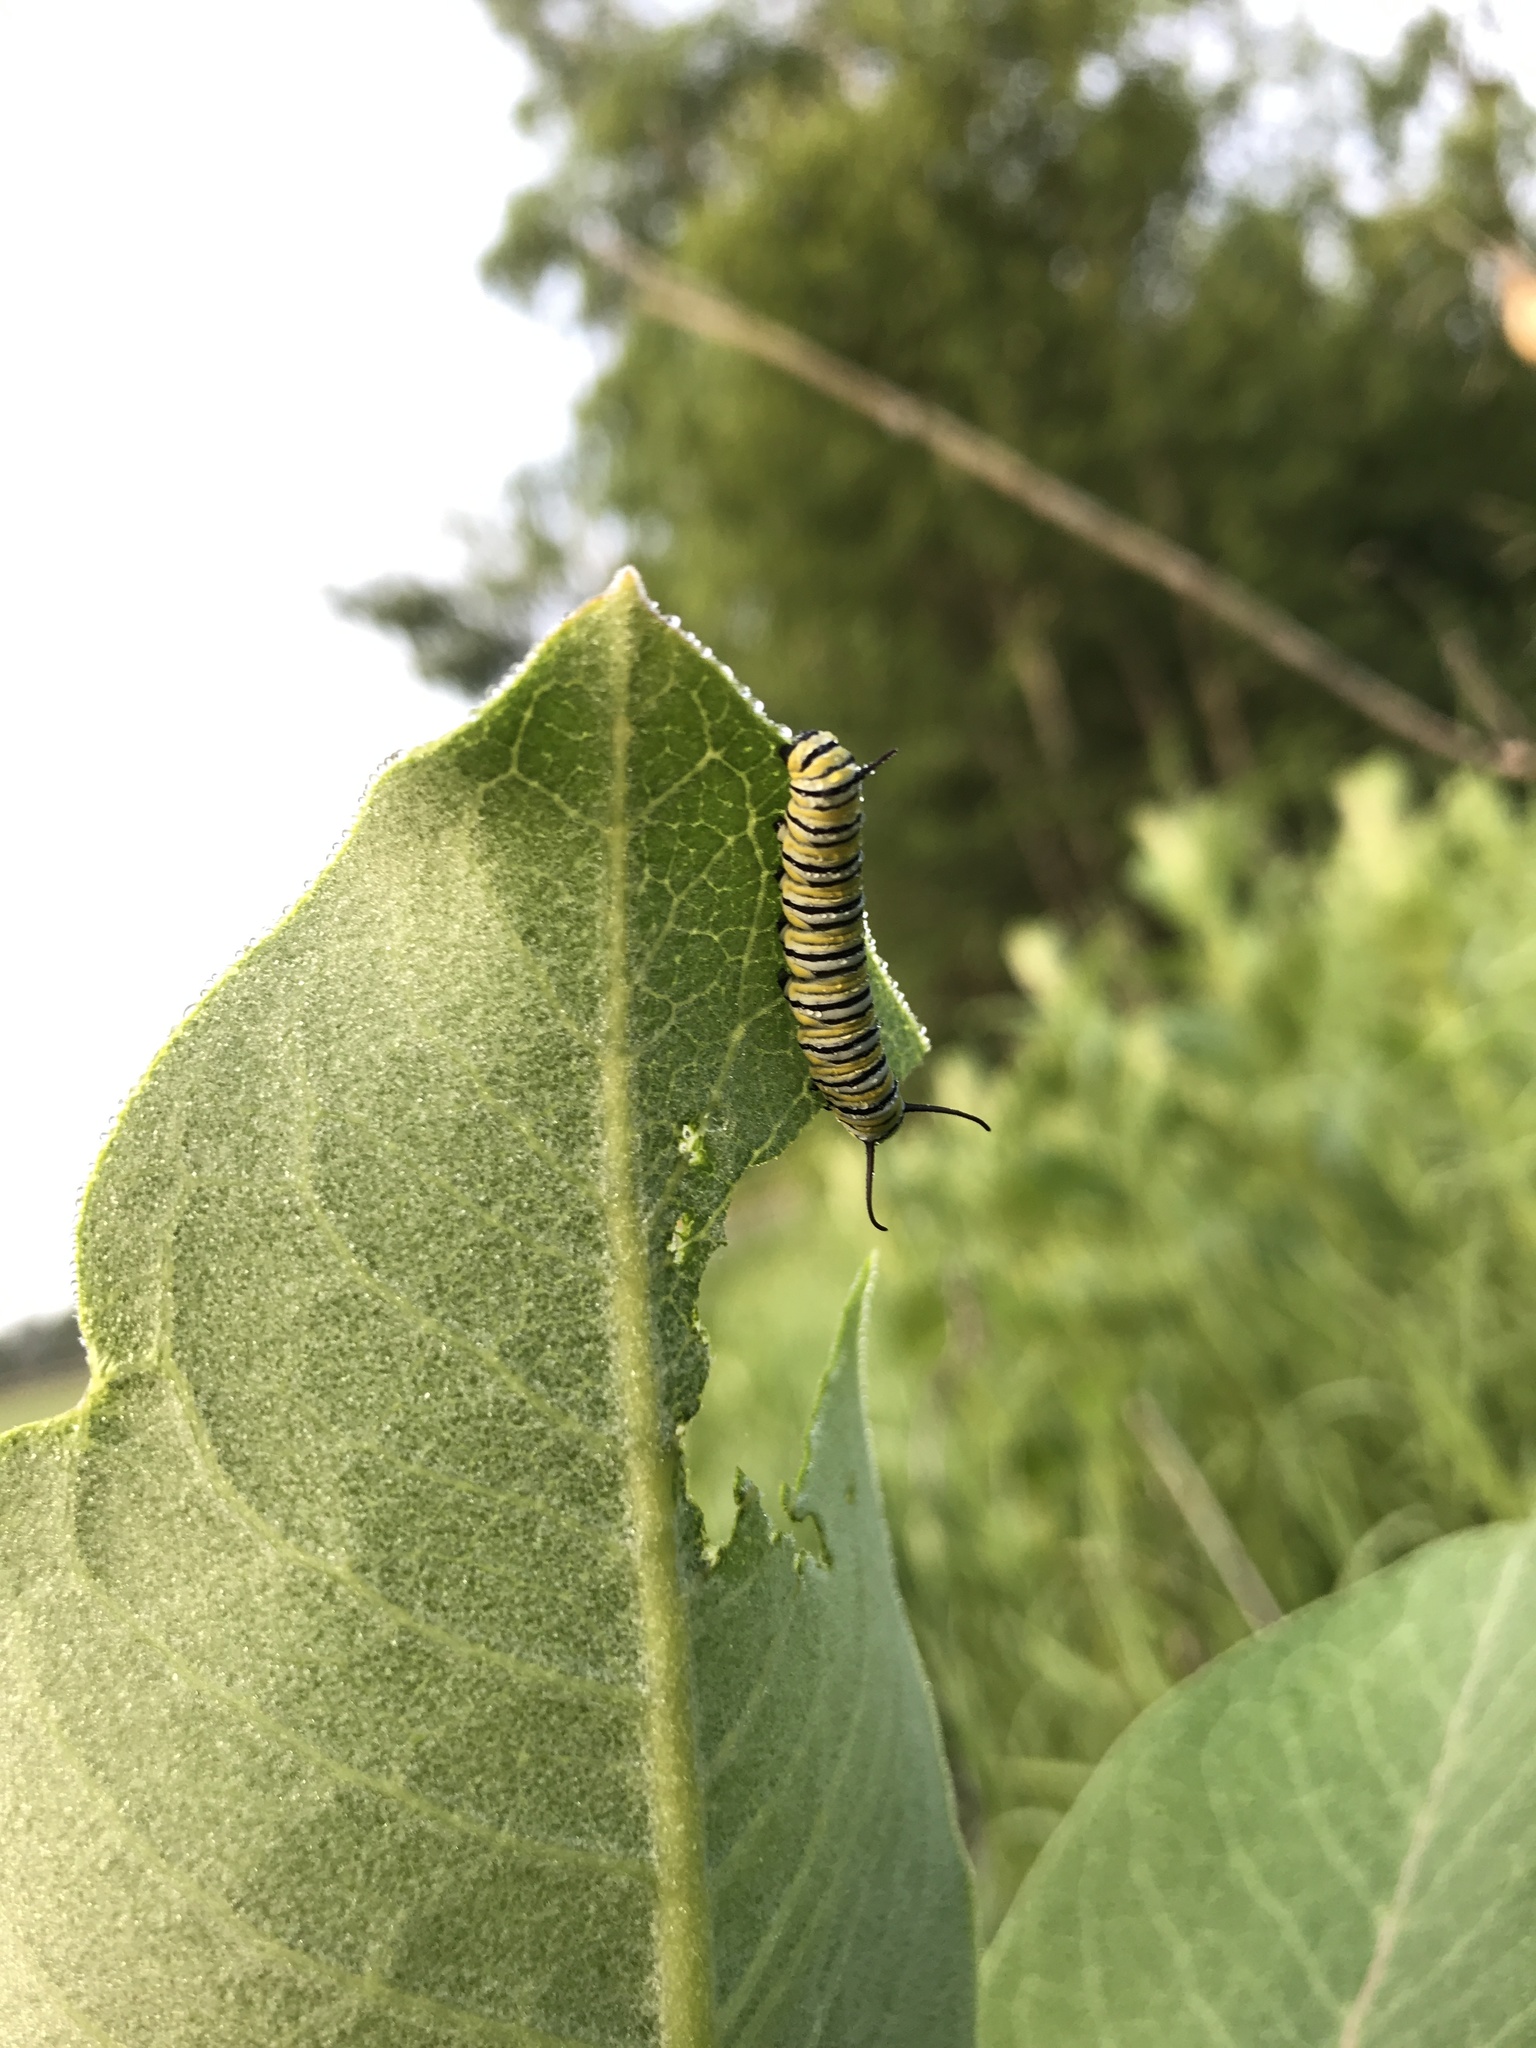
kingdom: Animalia
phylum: Arthropoda
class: Insecta
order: Lepidoptera
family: Nymphalidae
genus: Danaus
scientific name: Danaus plexippus
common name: Monarch
